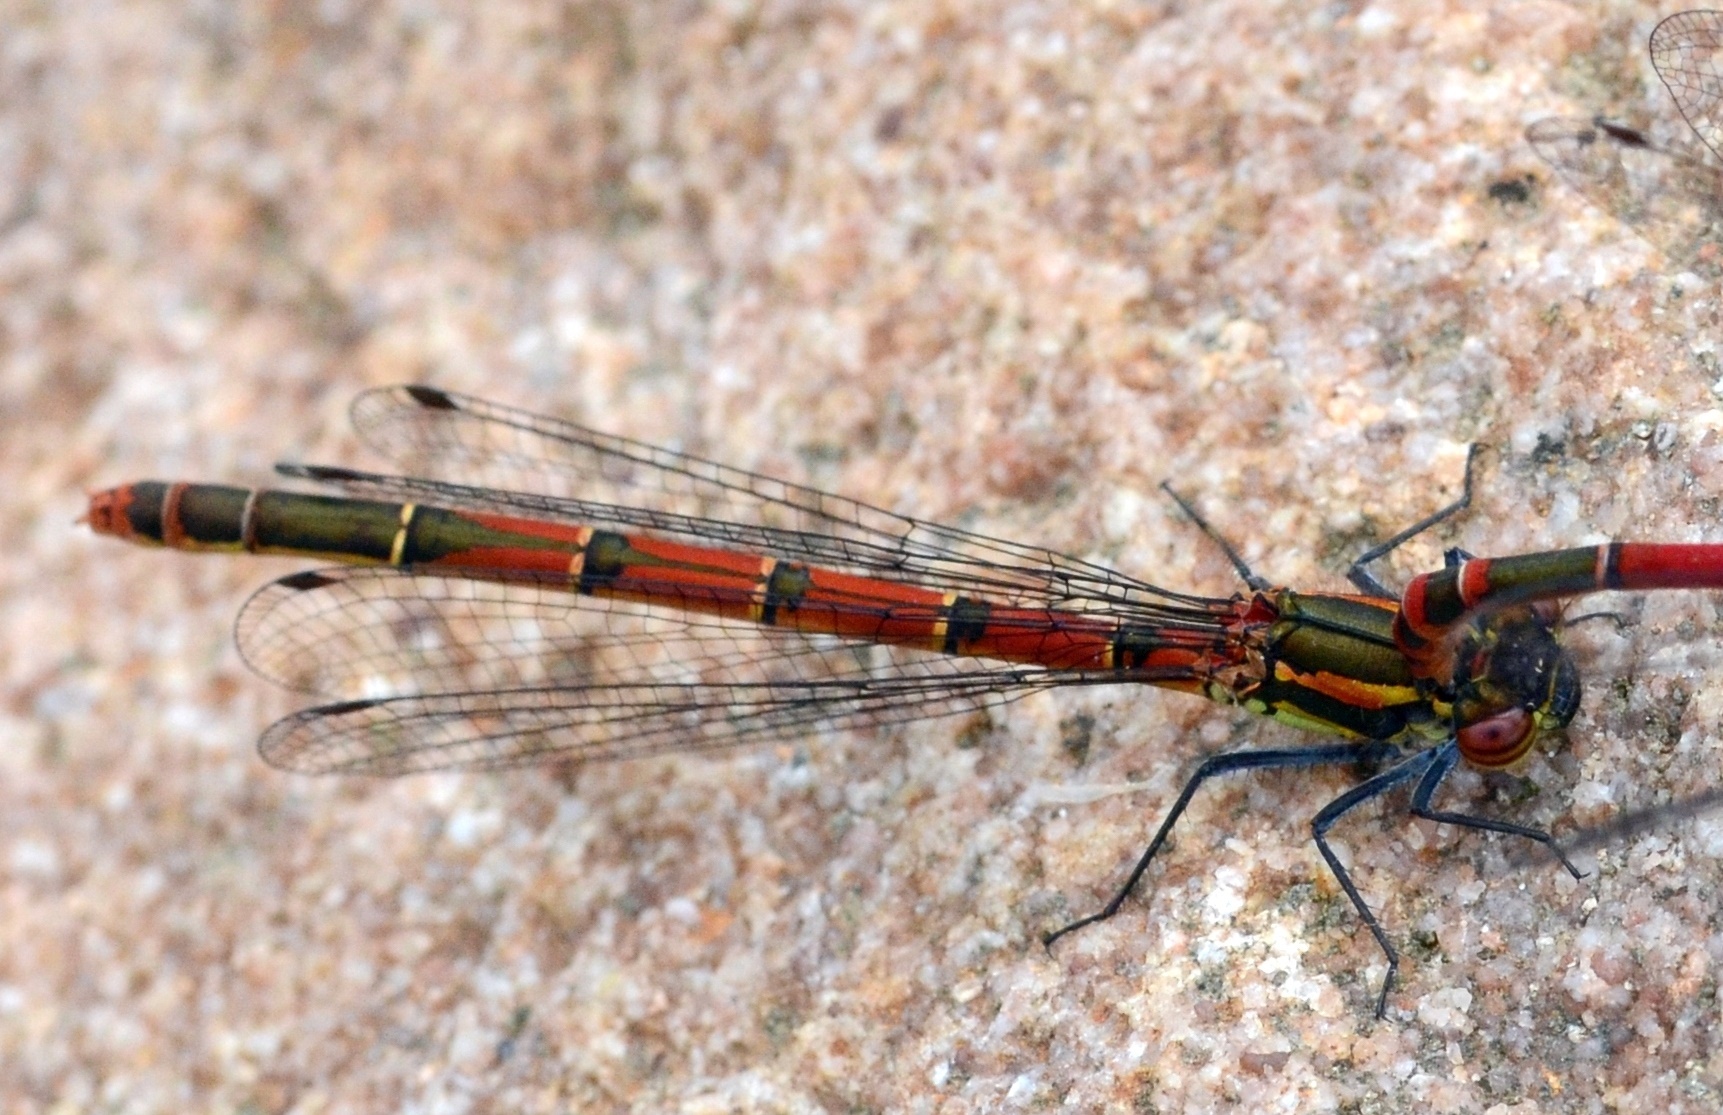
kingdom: Animalia
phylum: Arthropoda
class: Insecta
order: Odonata
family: Coenagrionidae
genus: Pyrrhosoma
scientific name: Pyrrhosoma nymphula
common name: Large red damsel
